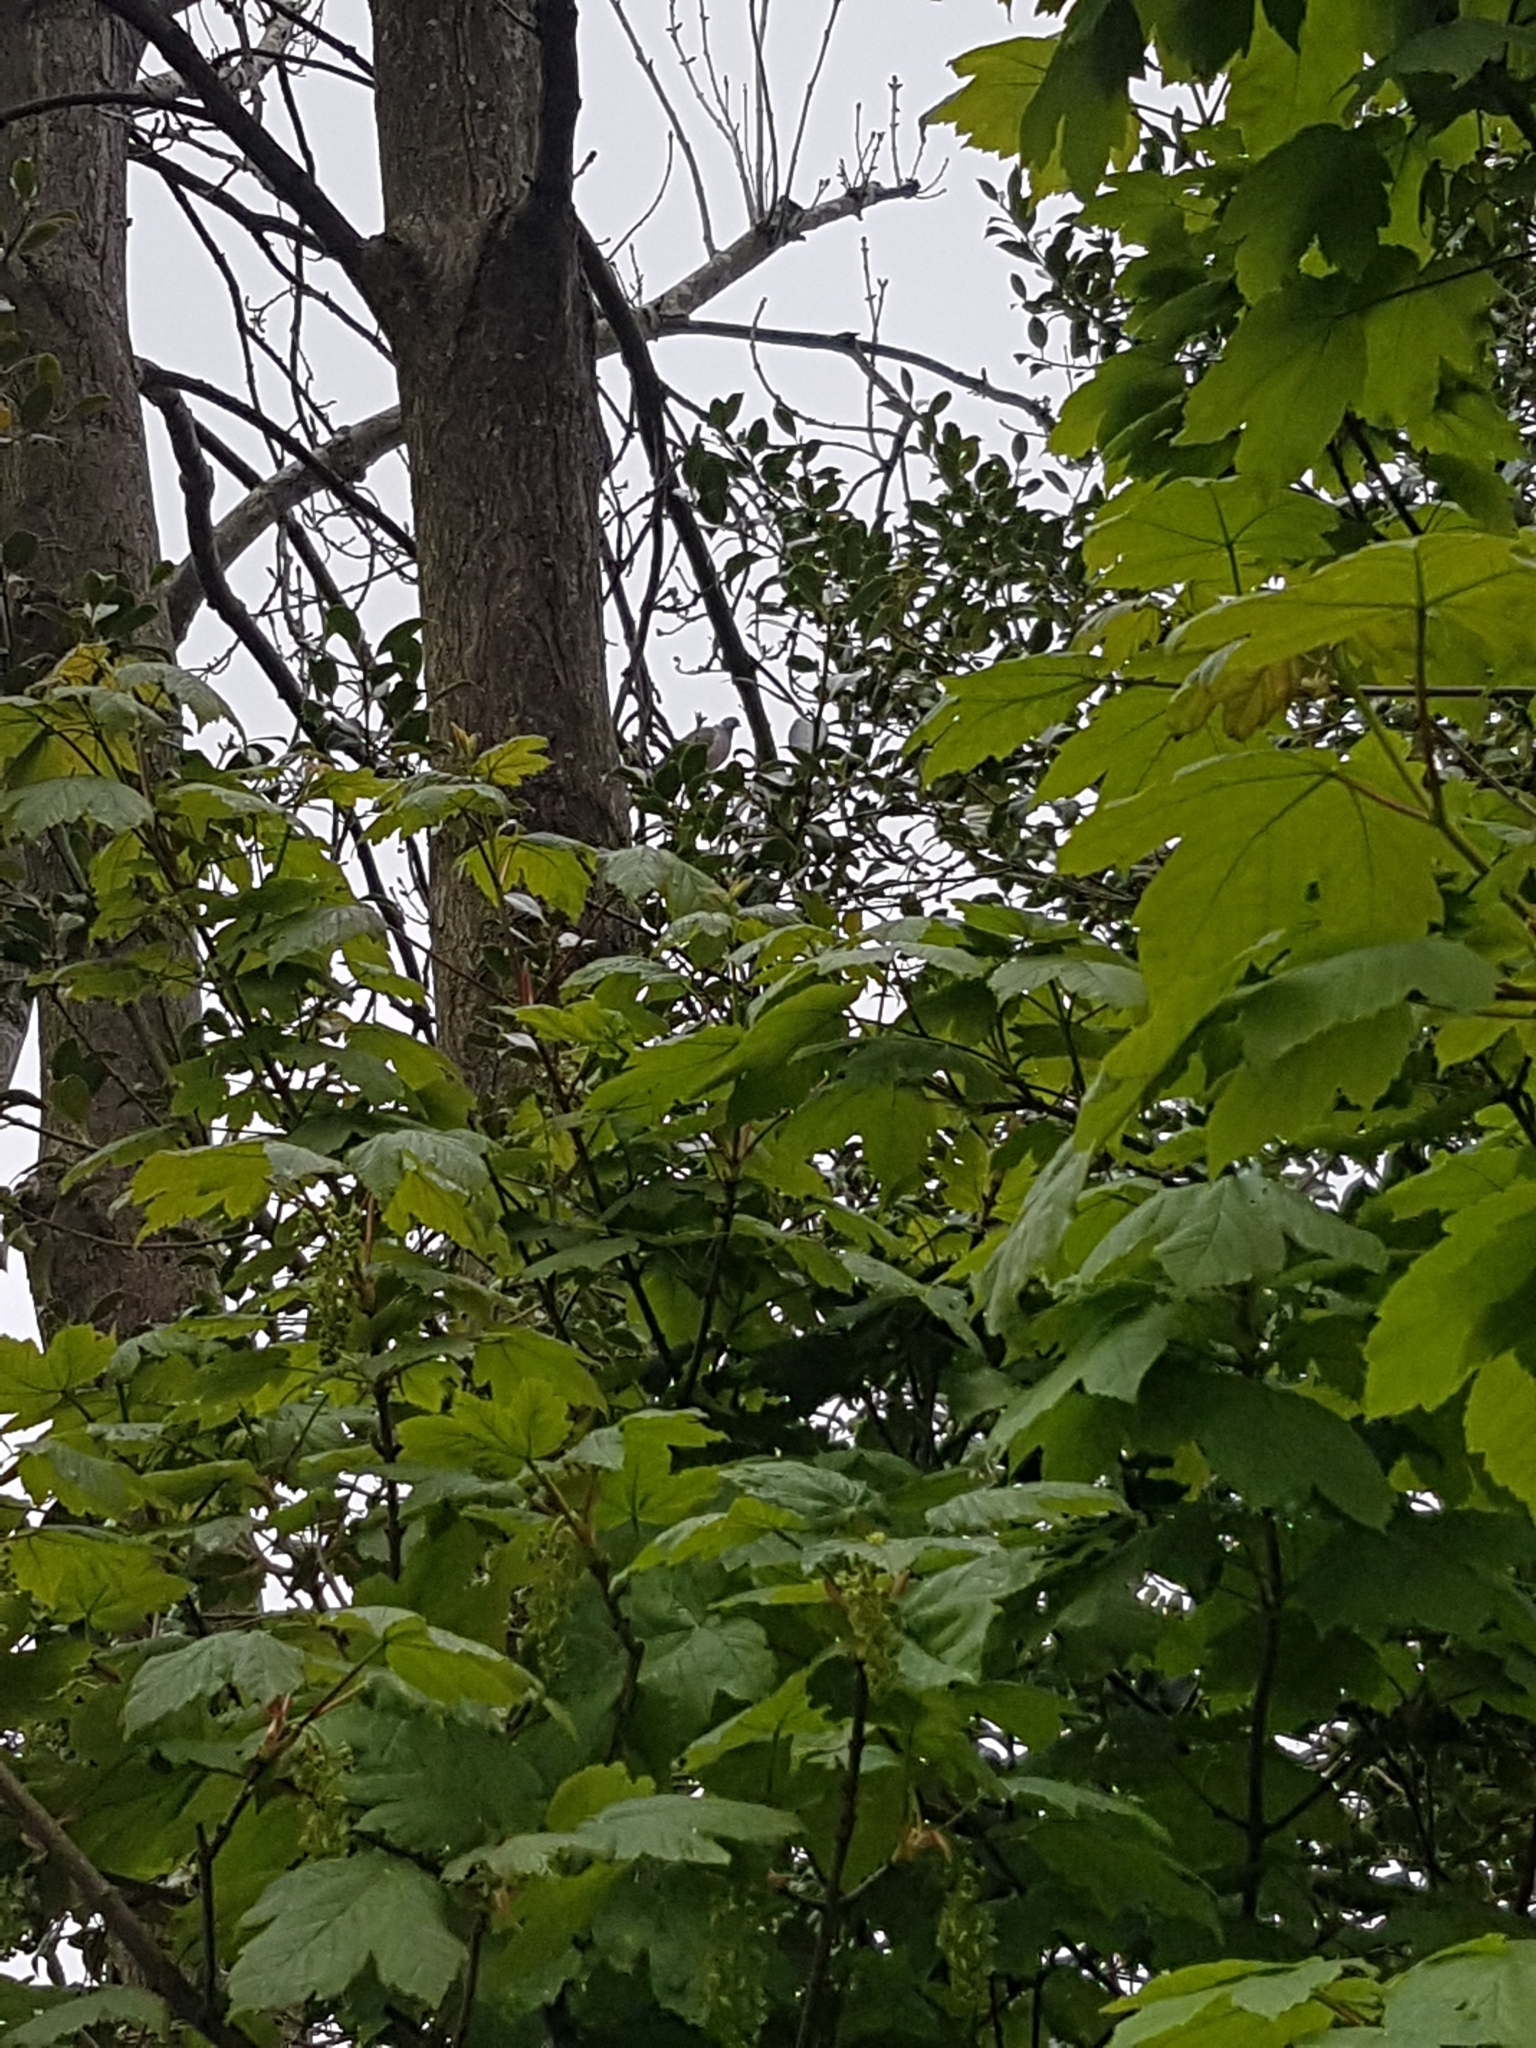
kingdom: Animalia
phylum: Chordata
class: Aves
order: Columbiformes
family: Columbidae
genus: Columba
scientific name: Columba palumbus
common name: Common wood pigeon
